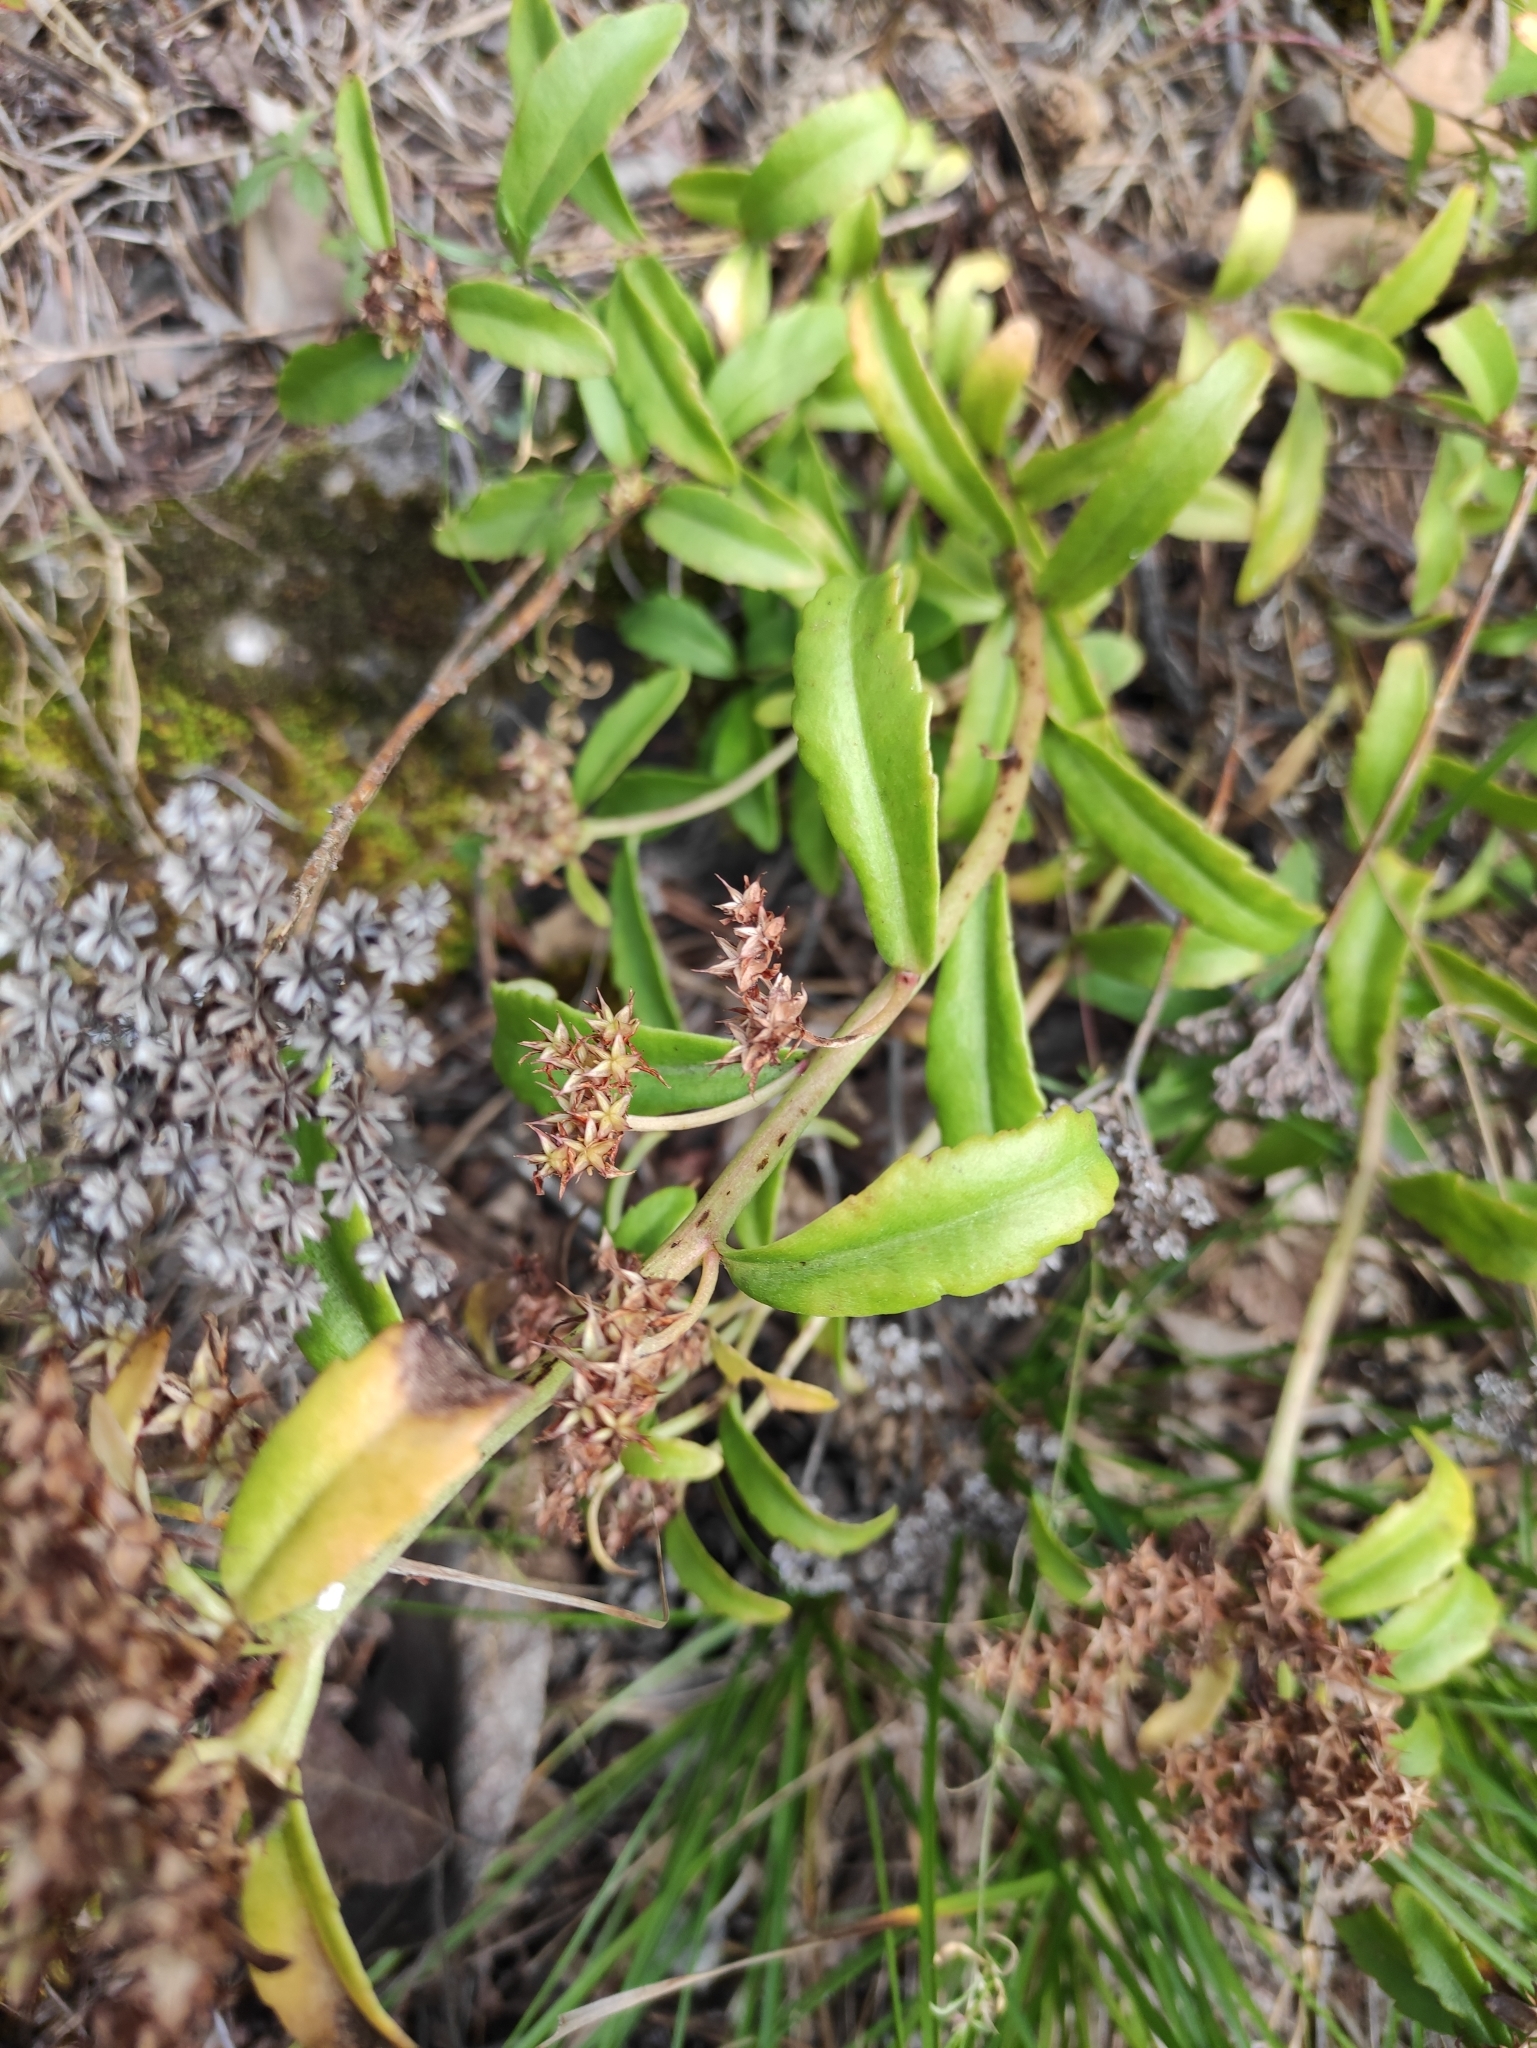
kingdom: Plantae
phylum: Tracheophyta
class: Magnoliopsida
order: Saxifragales
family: Crassulaceae
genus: Phedimus
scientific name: Phedimus aizoon
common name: Orpin aizoon
